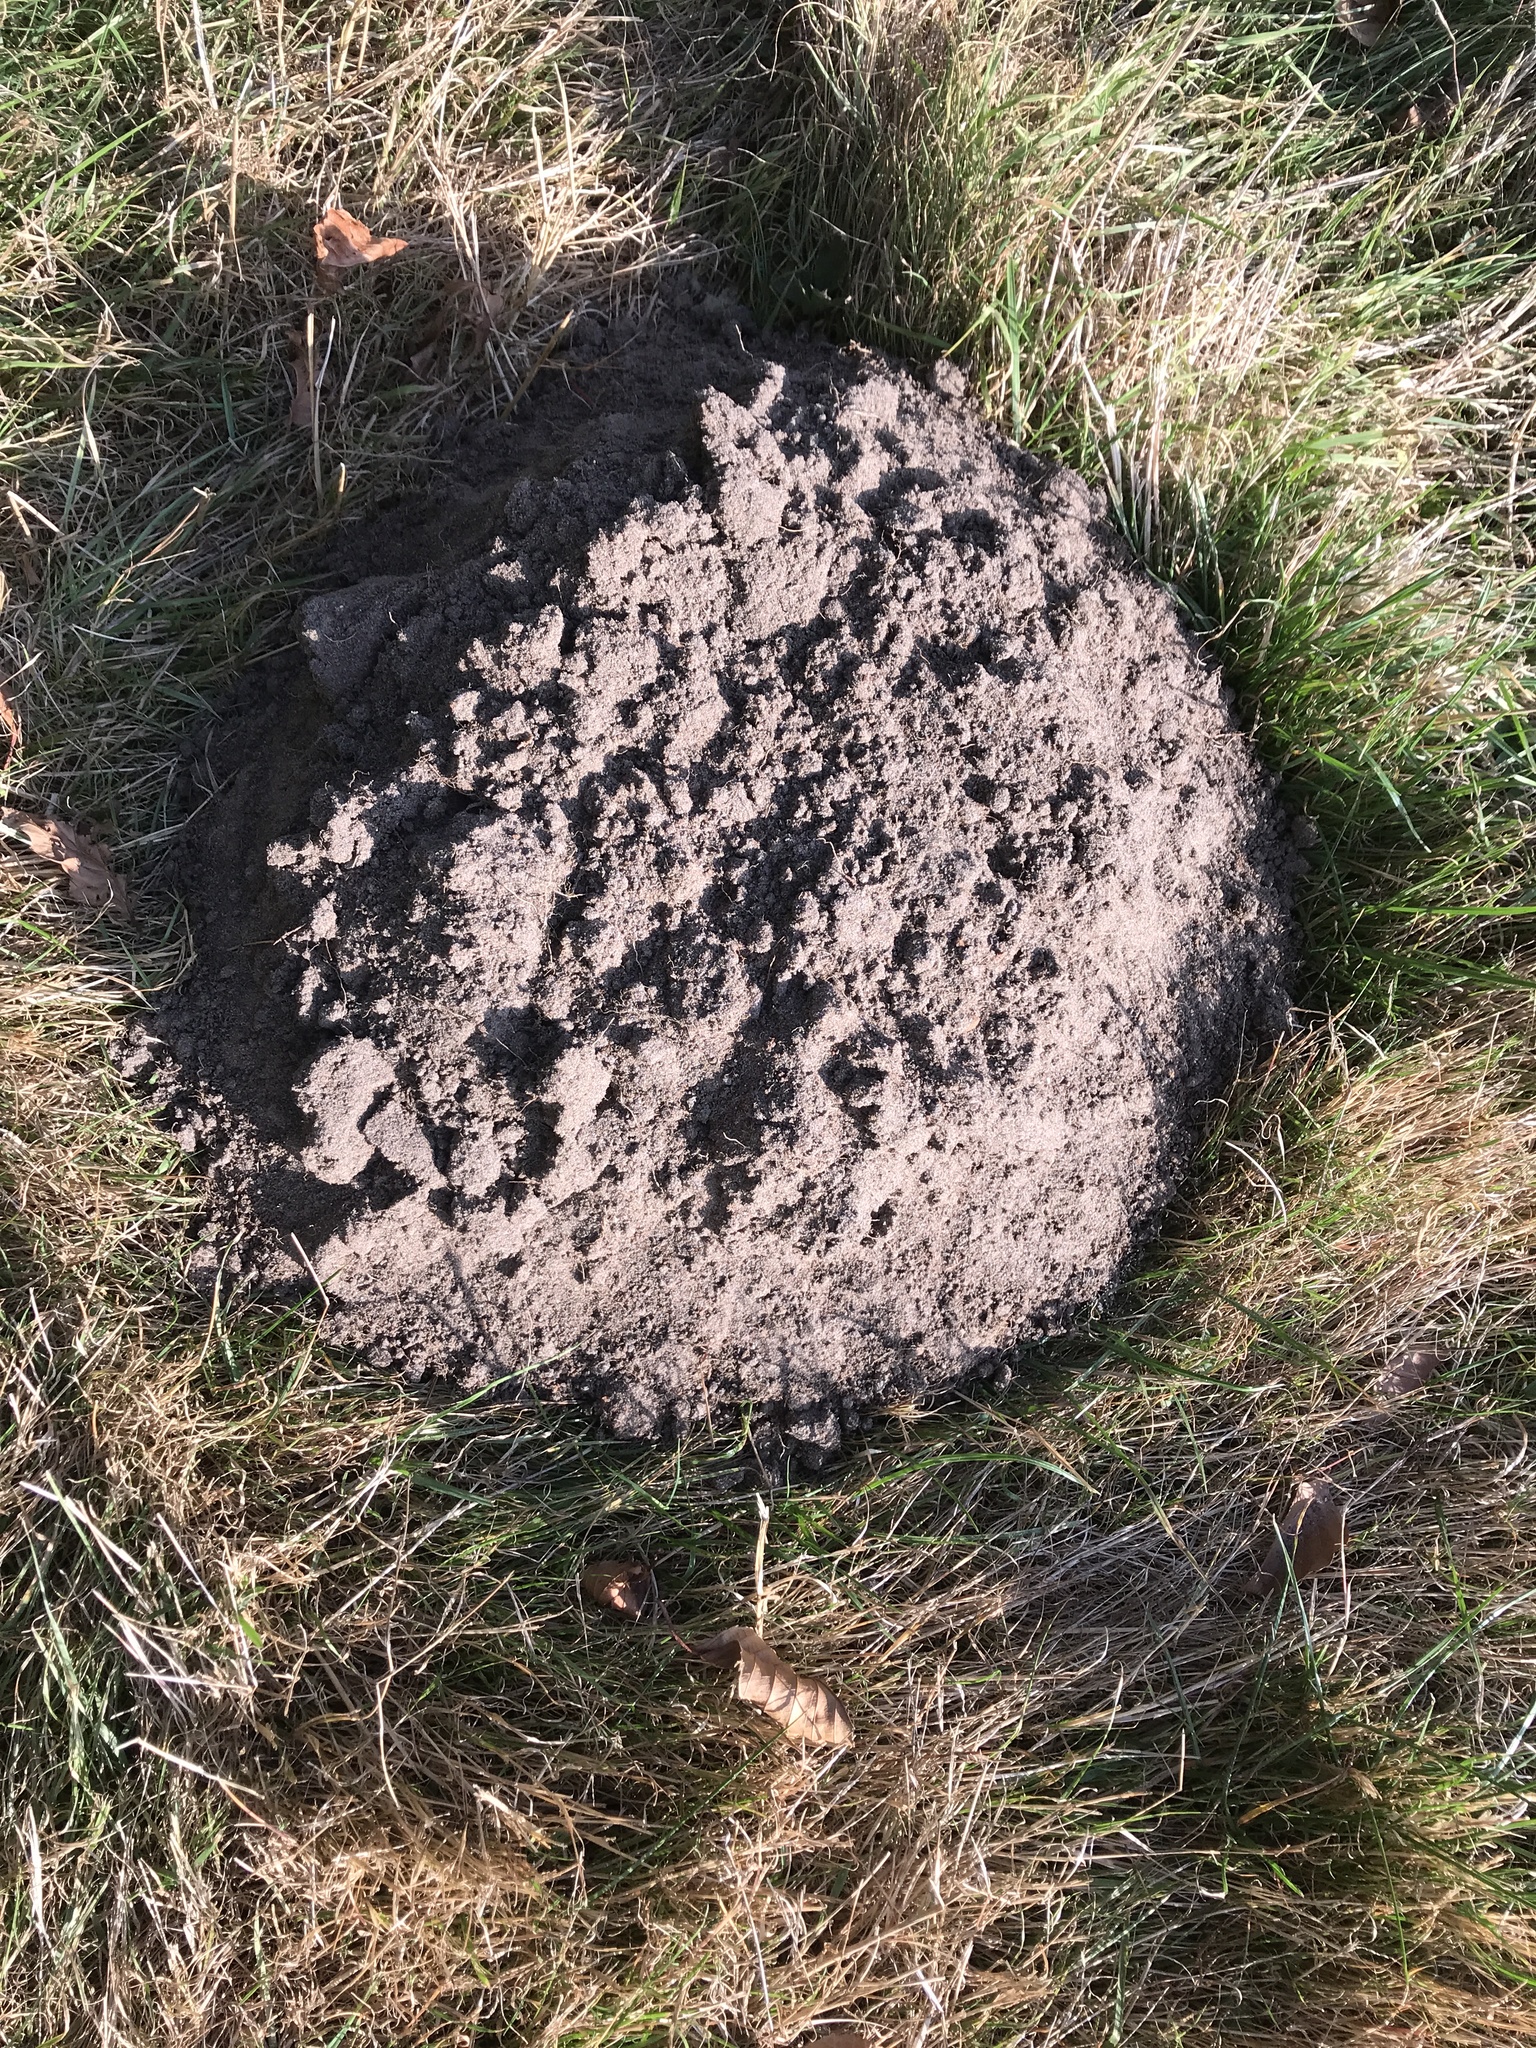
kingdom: Animalia
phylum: Chordata
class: Mammalia
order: Soricomorpha
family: Talpidae
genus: Talpa
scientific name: Talpa europaea
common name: European mole
